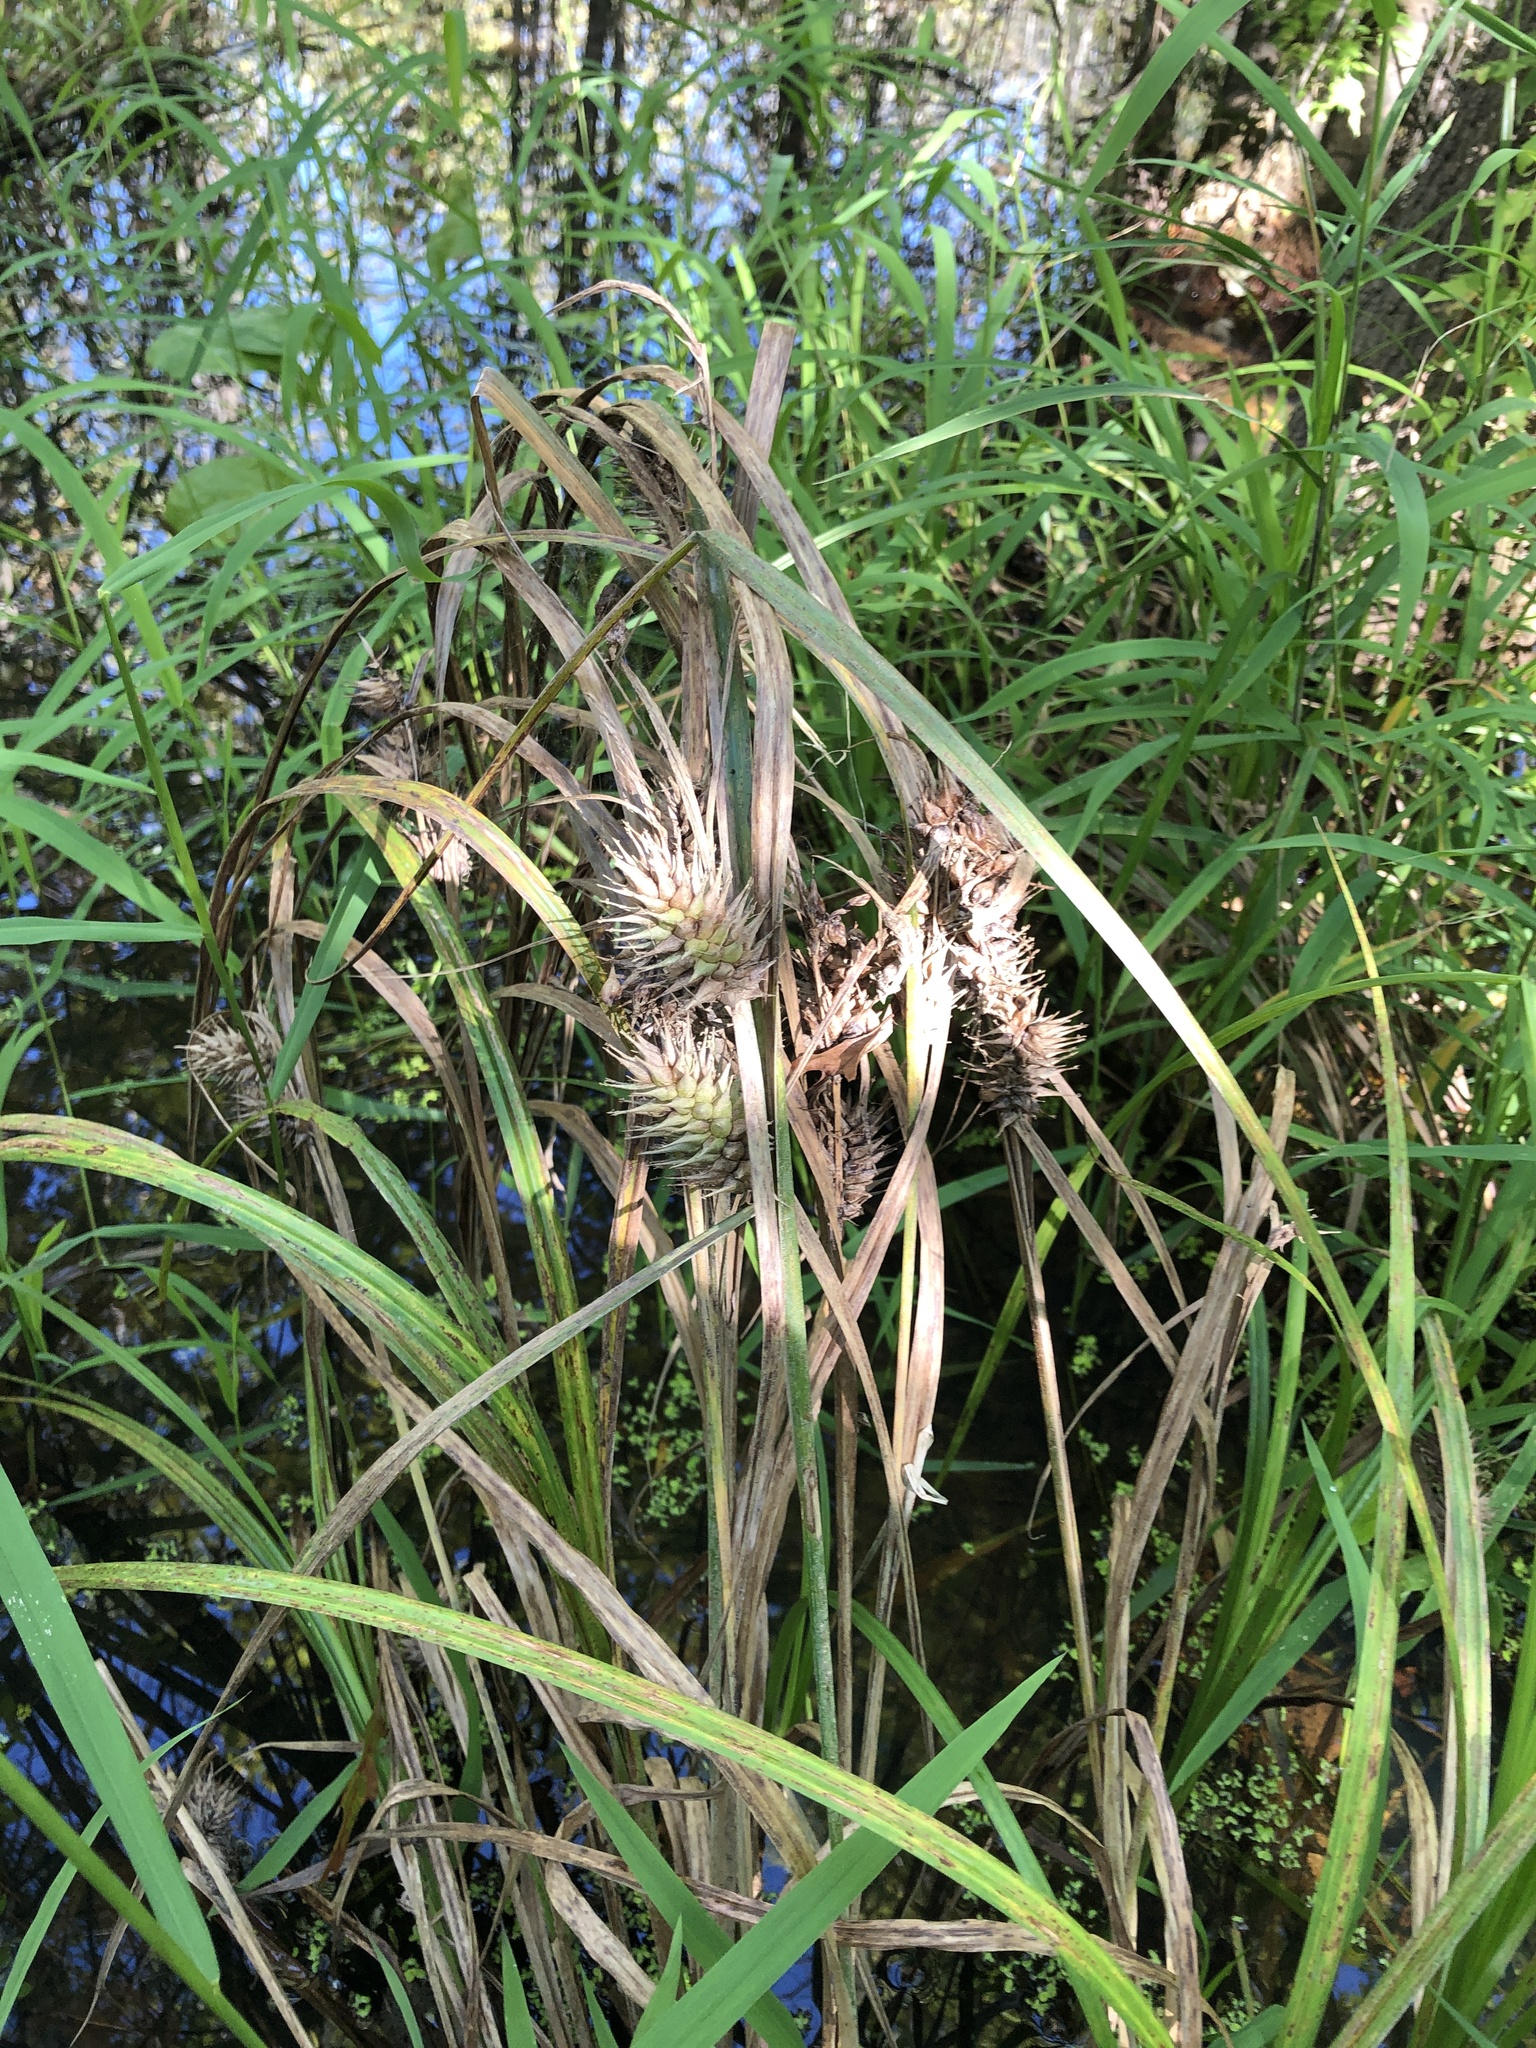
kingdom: Plantae
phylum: Tracheophyta
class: Liliopsida
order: Poales
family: Cyperaceae
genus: Carex
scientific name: Carex lupulina
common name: Hop sedge
